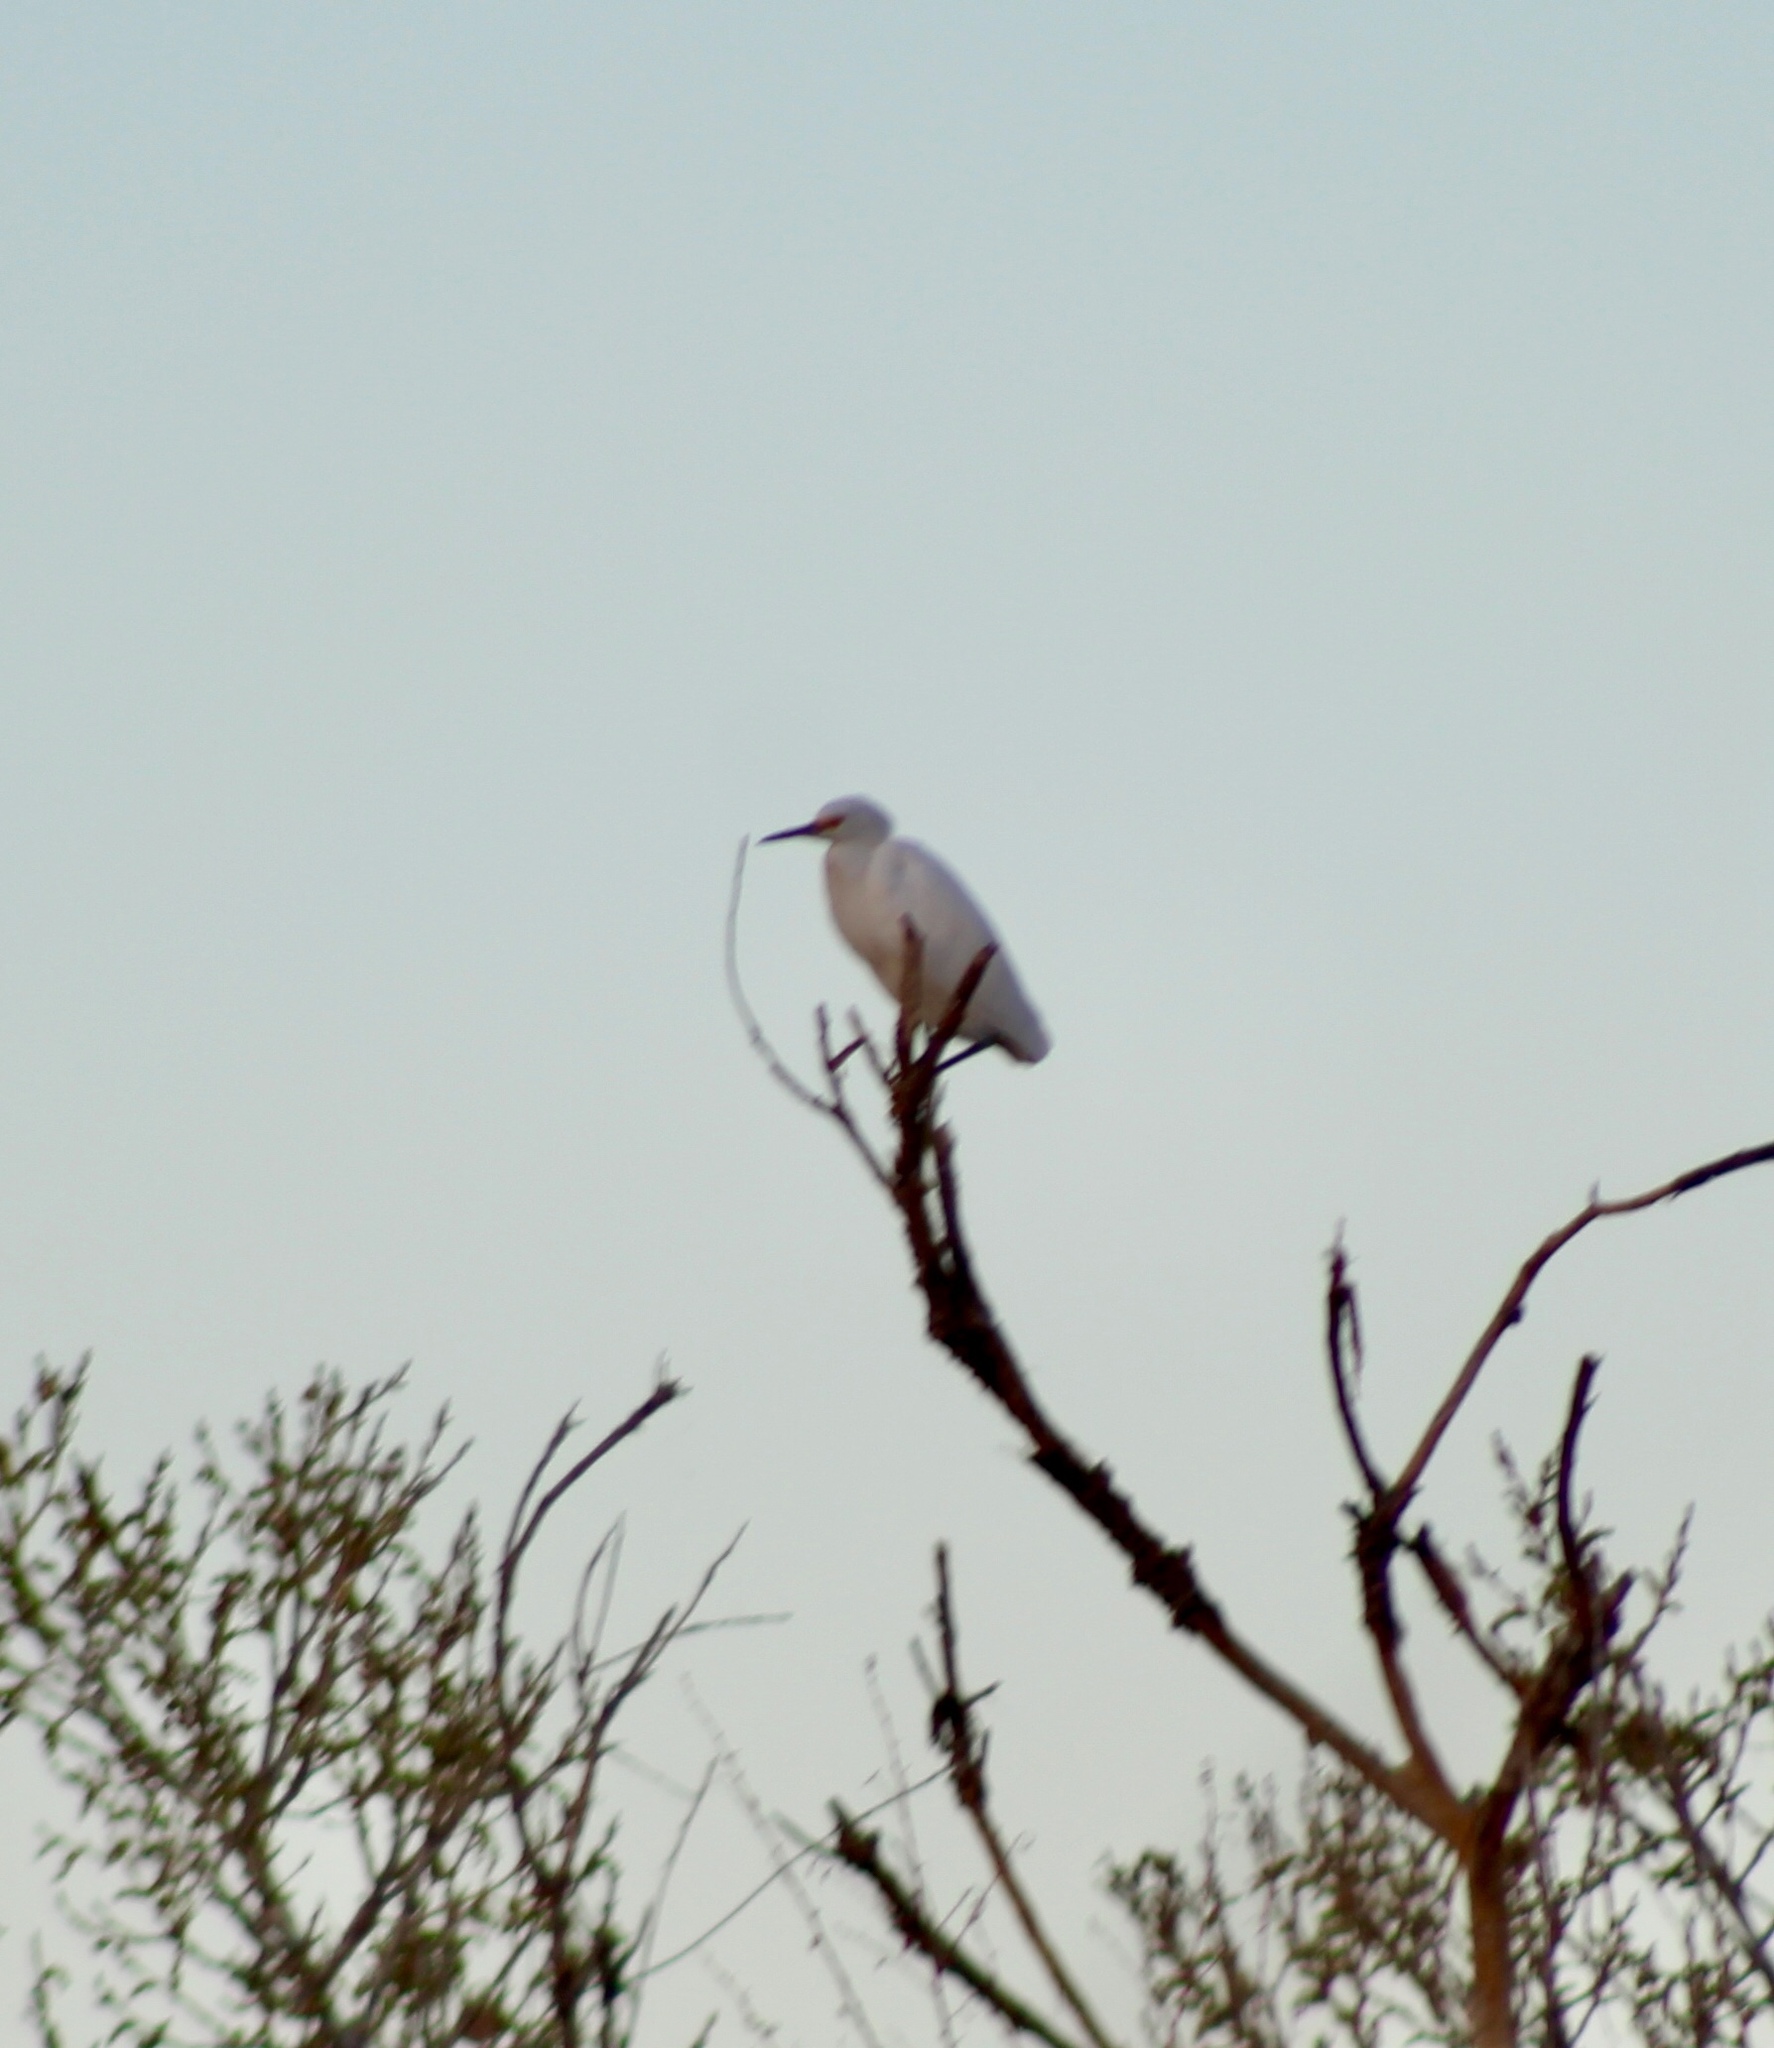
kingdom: Animalia
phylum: Chordata
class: Aves
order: Pelecaniformes
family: Ardeidae
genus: Egretta
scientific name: Egretta thula
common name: Snowy egret
